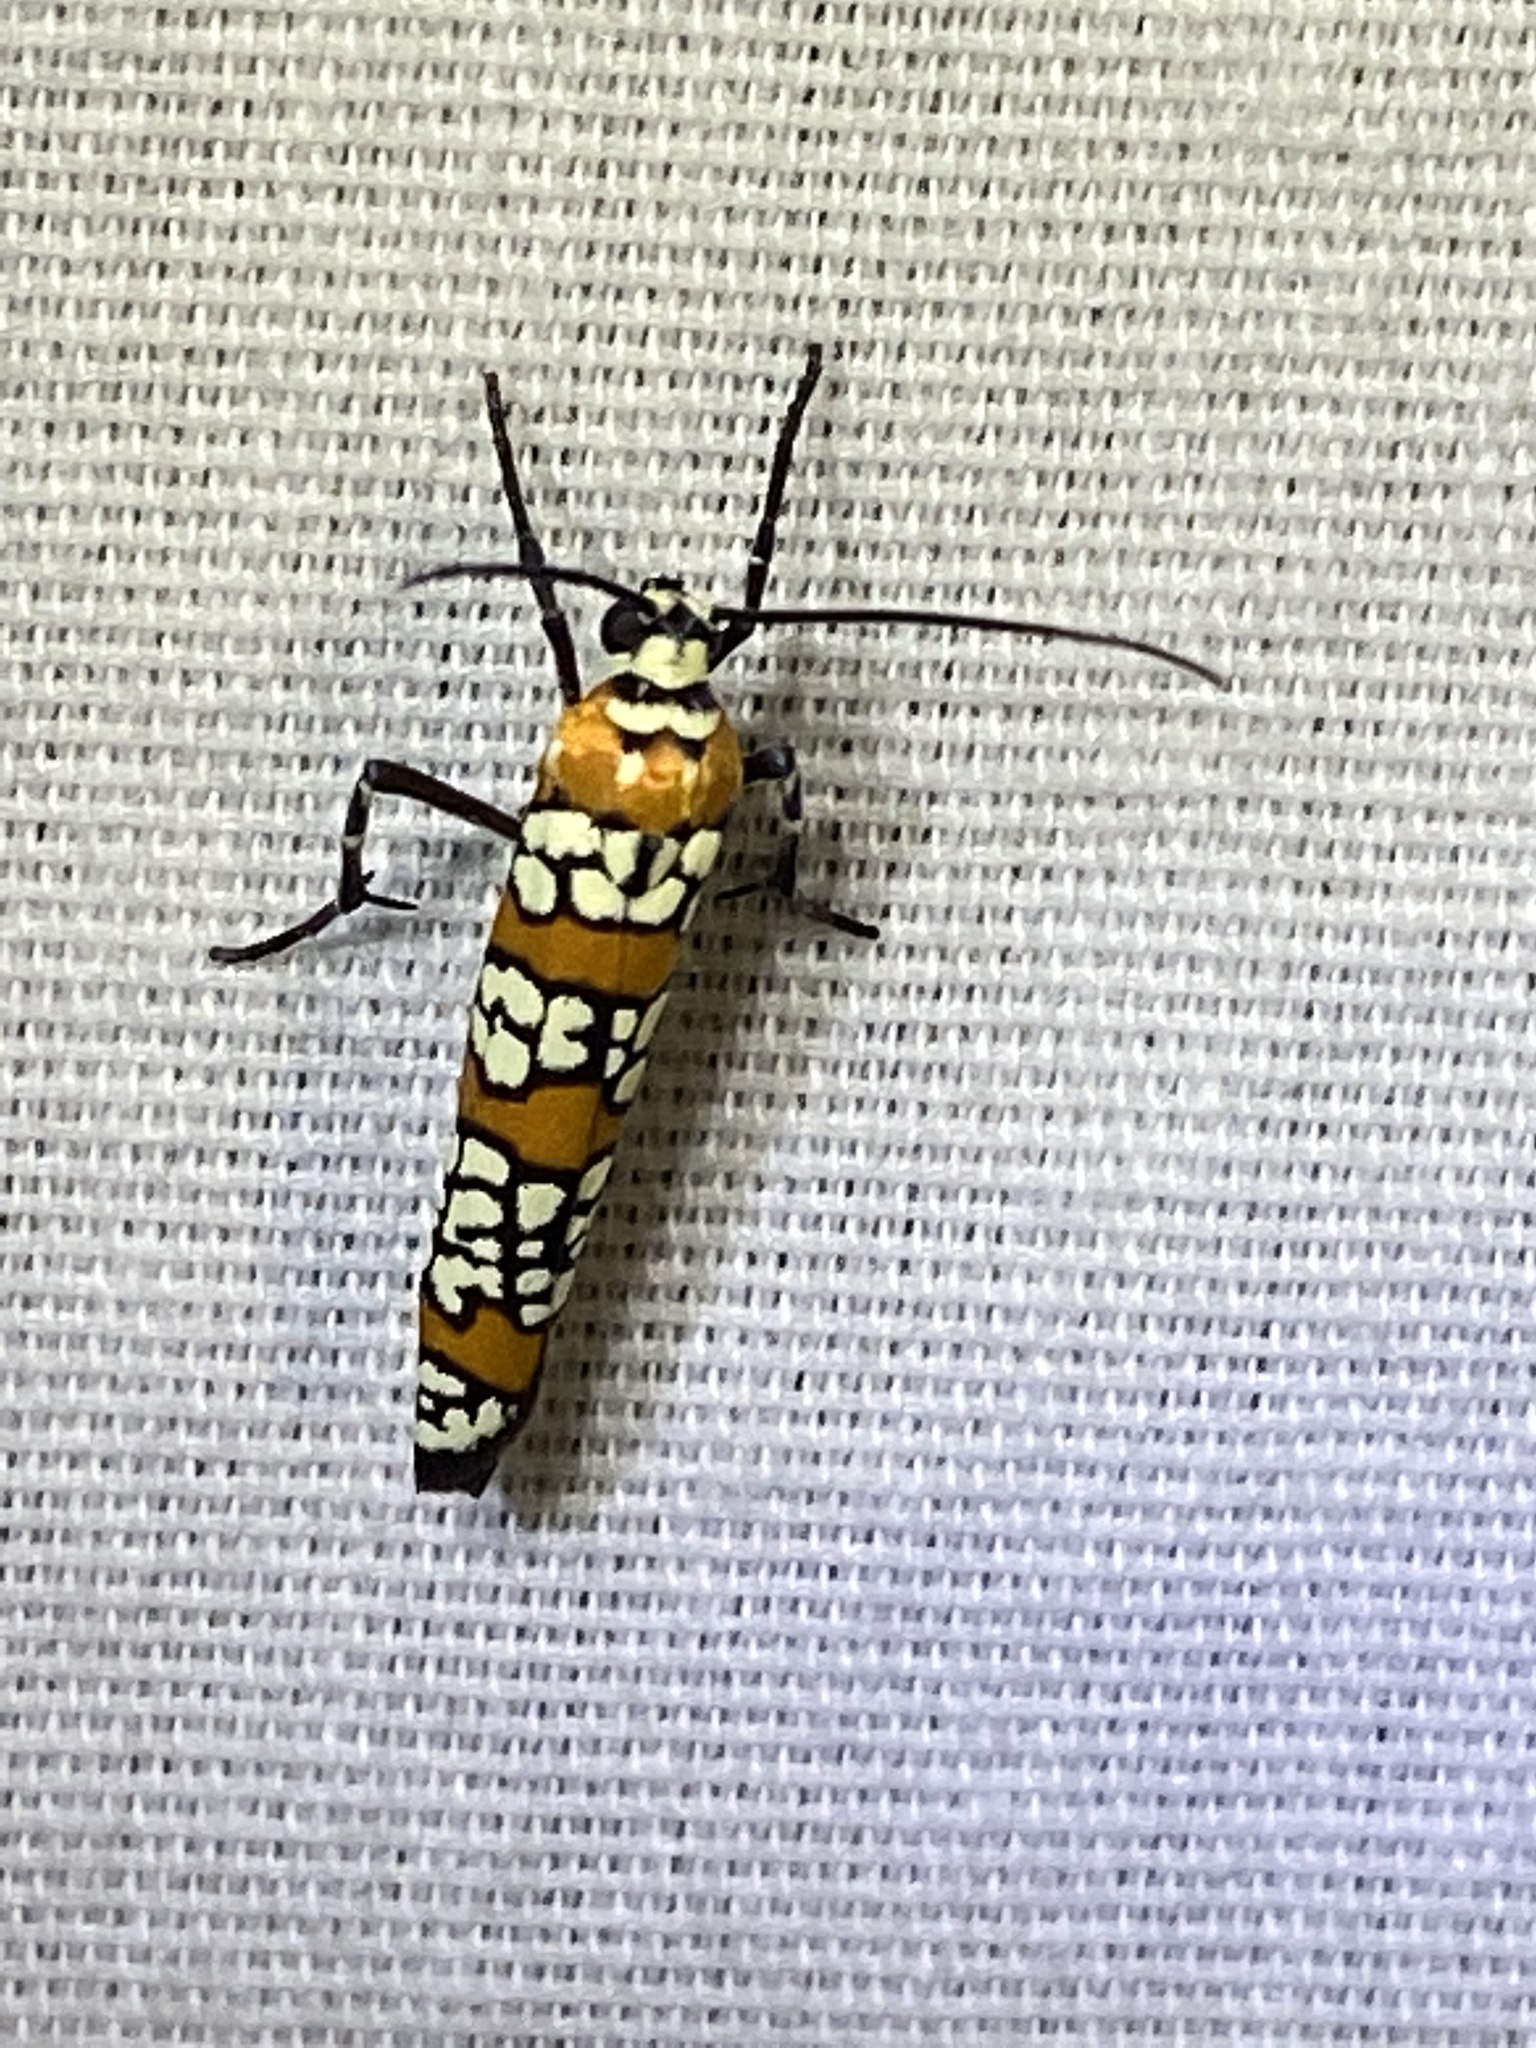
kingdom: Animalia
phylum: Arthropoda
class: Insecta
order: Lepidoptera
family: Attevidae
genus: Atteva
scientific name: Atteva punctella
